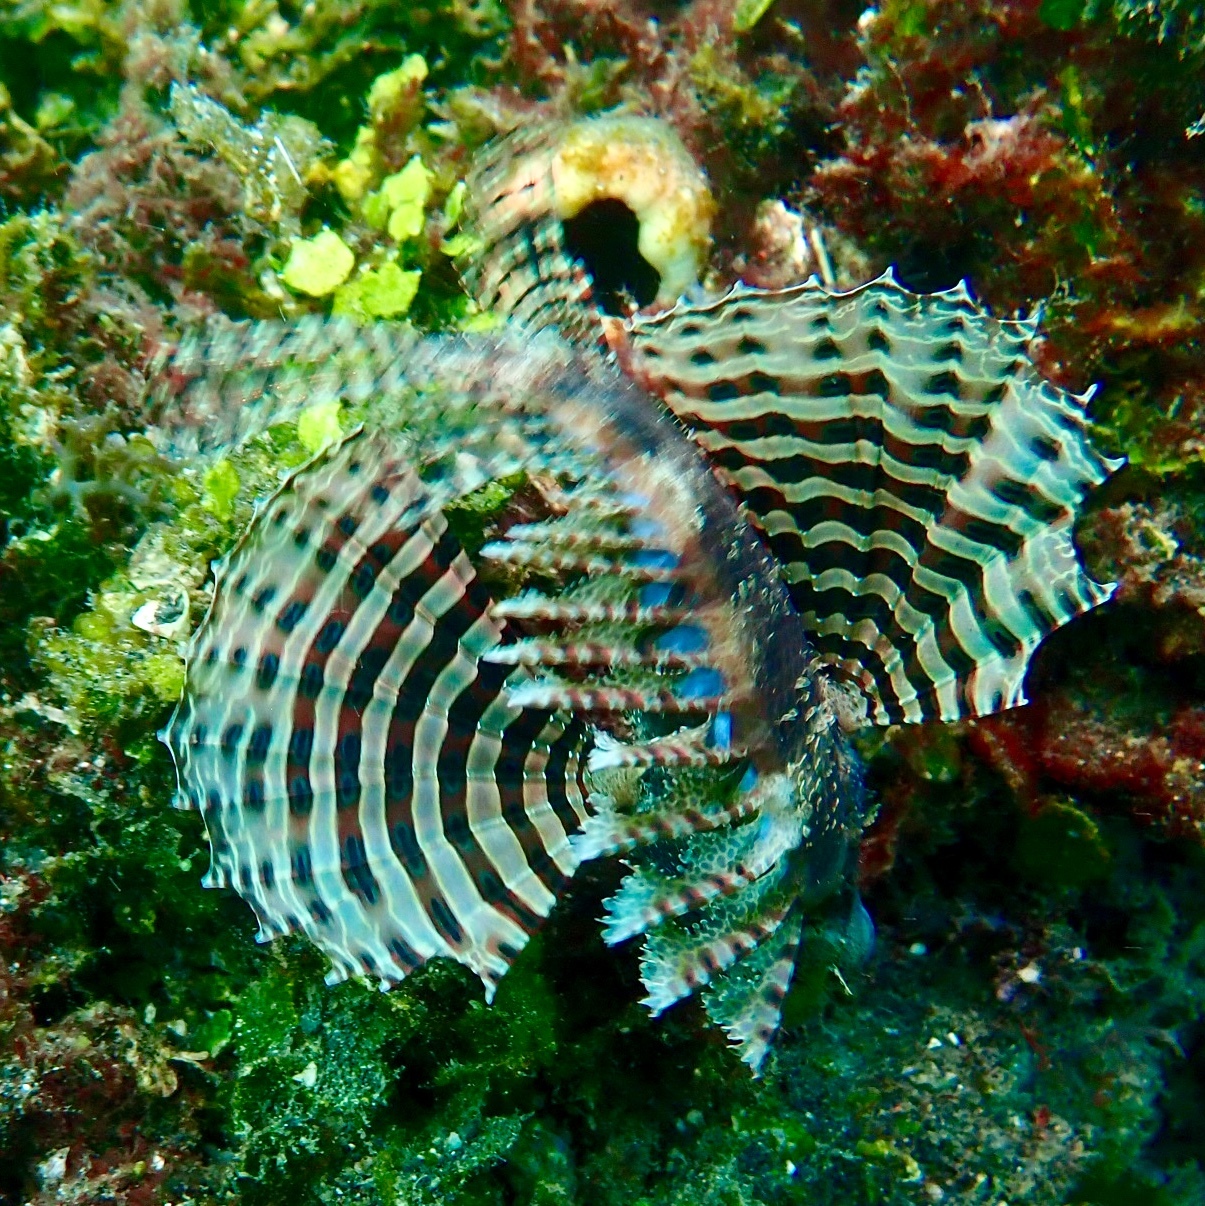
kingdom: Animalia
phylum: Chordata
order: Scorpaeniformes
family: Scorpaenidae
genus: Dendrochirus
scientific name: Dendrochirus brachypterus
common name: Shortfin turkeyfish
